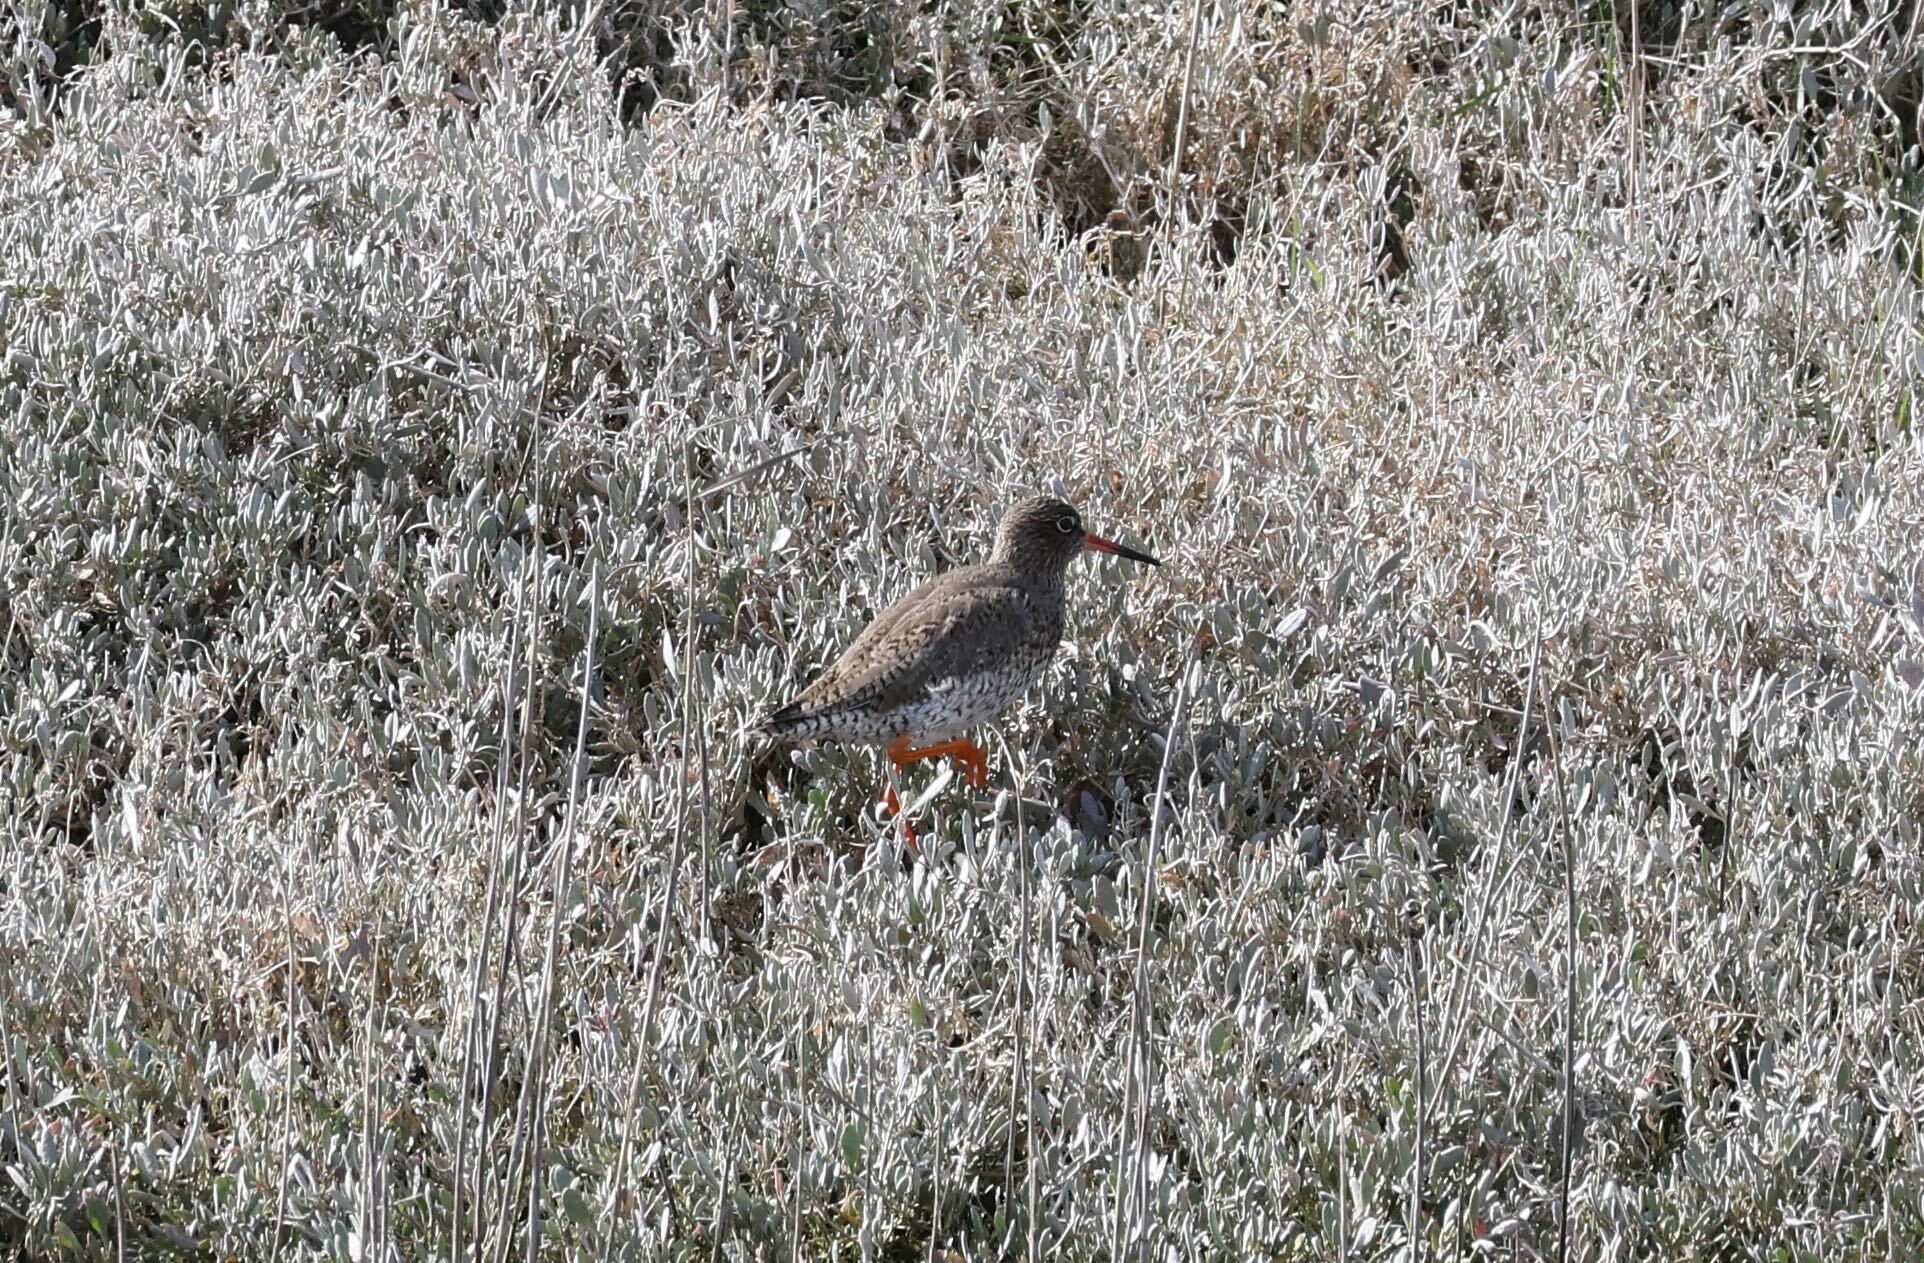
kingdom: Animalia
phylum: Chordata
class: Aves
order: Charadriiformes
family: Scolopacidae
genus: Tringa
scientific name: Tringa totanus
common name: Common redshank
